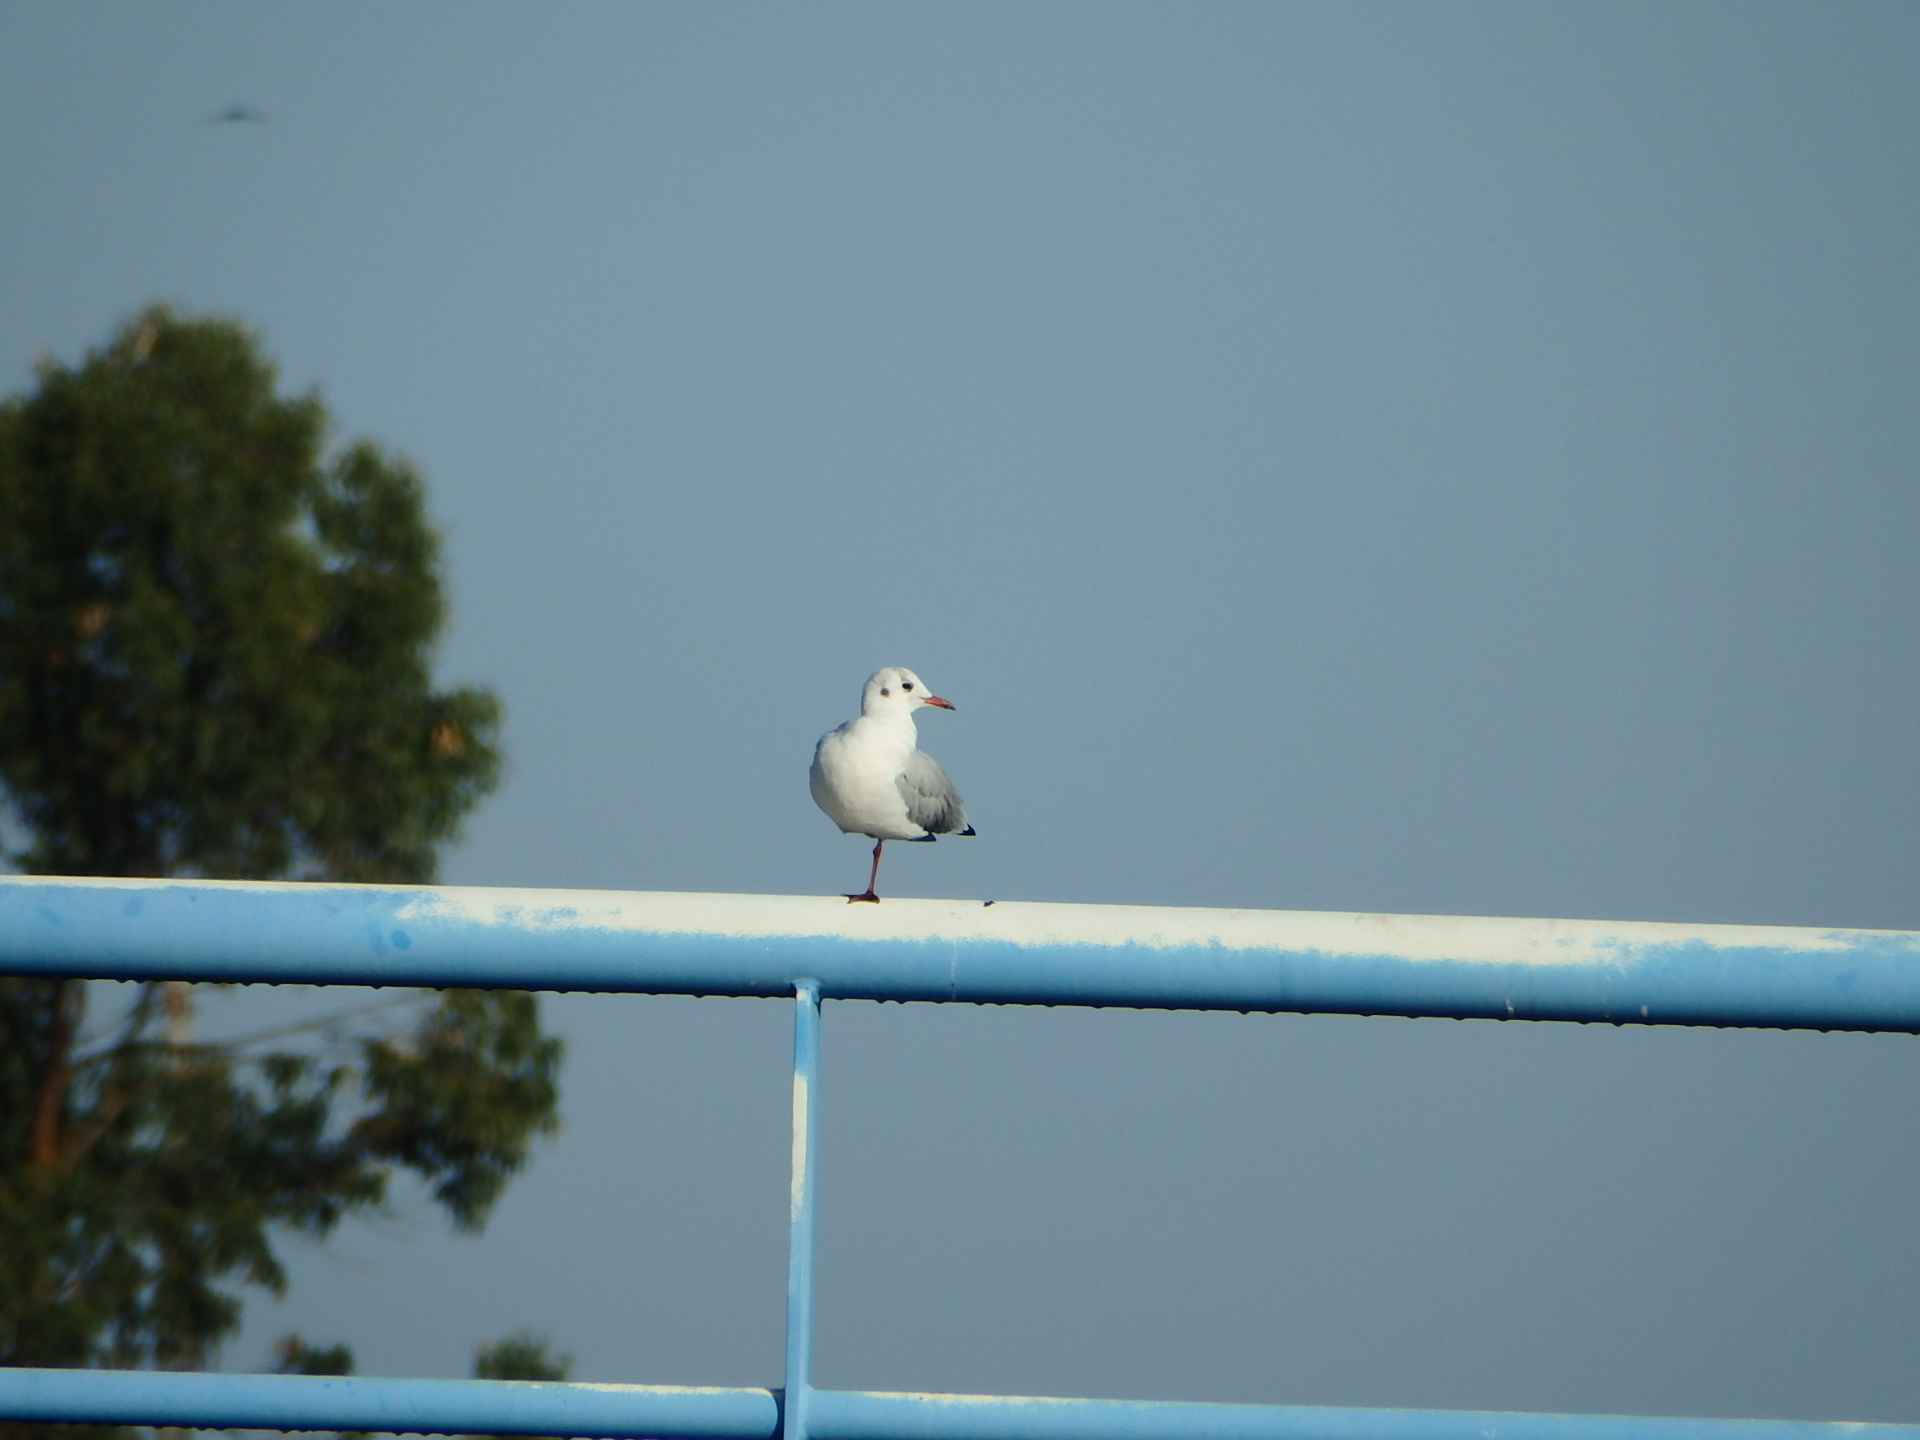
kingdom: Animalia
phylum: Chordata
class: Aves
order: Charadriiformes
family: Laridae
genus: Chroicocephalus
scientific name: Chroicocephalus ridibundus
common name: Black-headed gull
